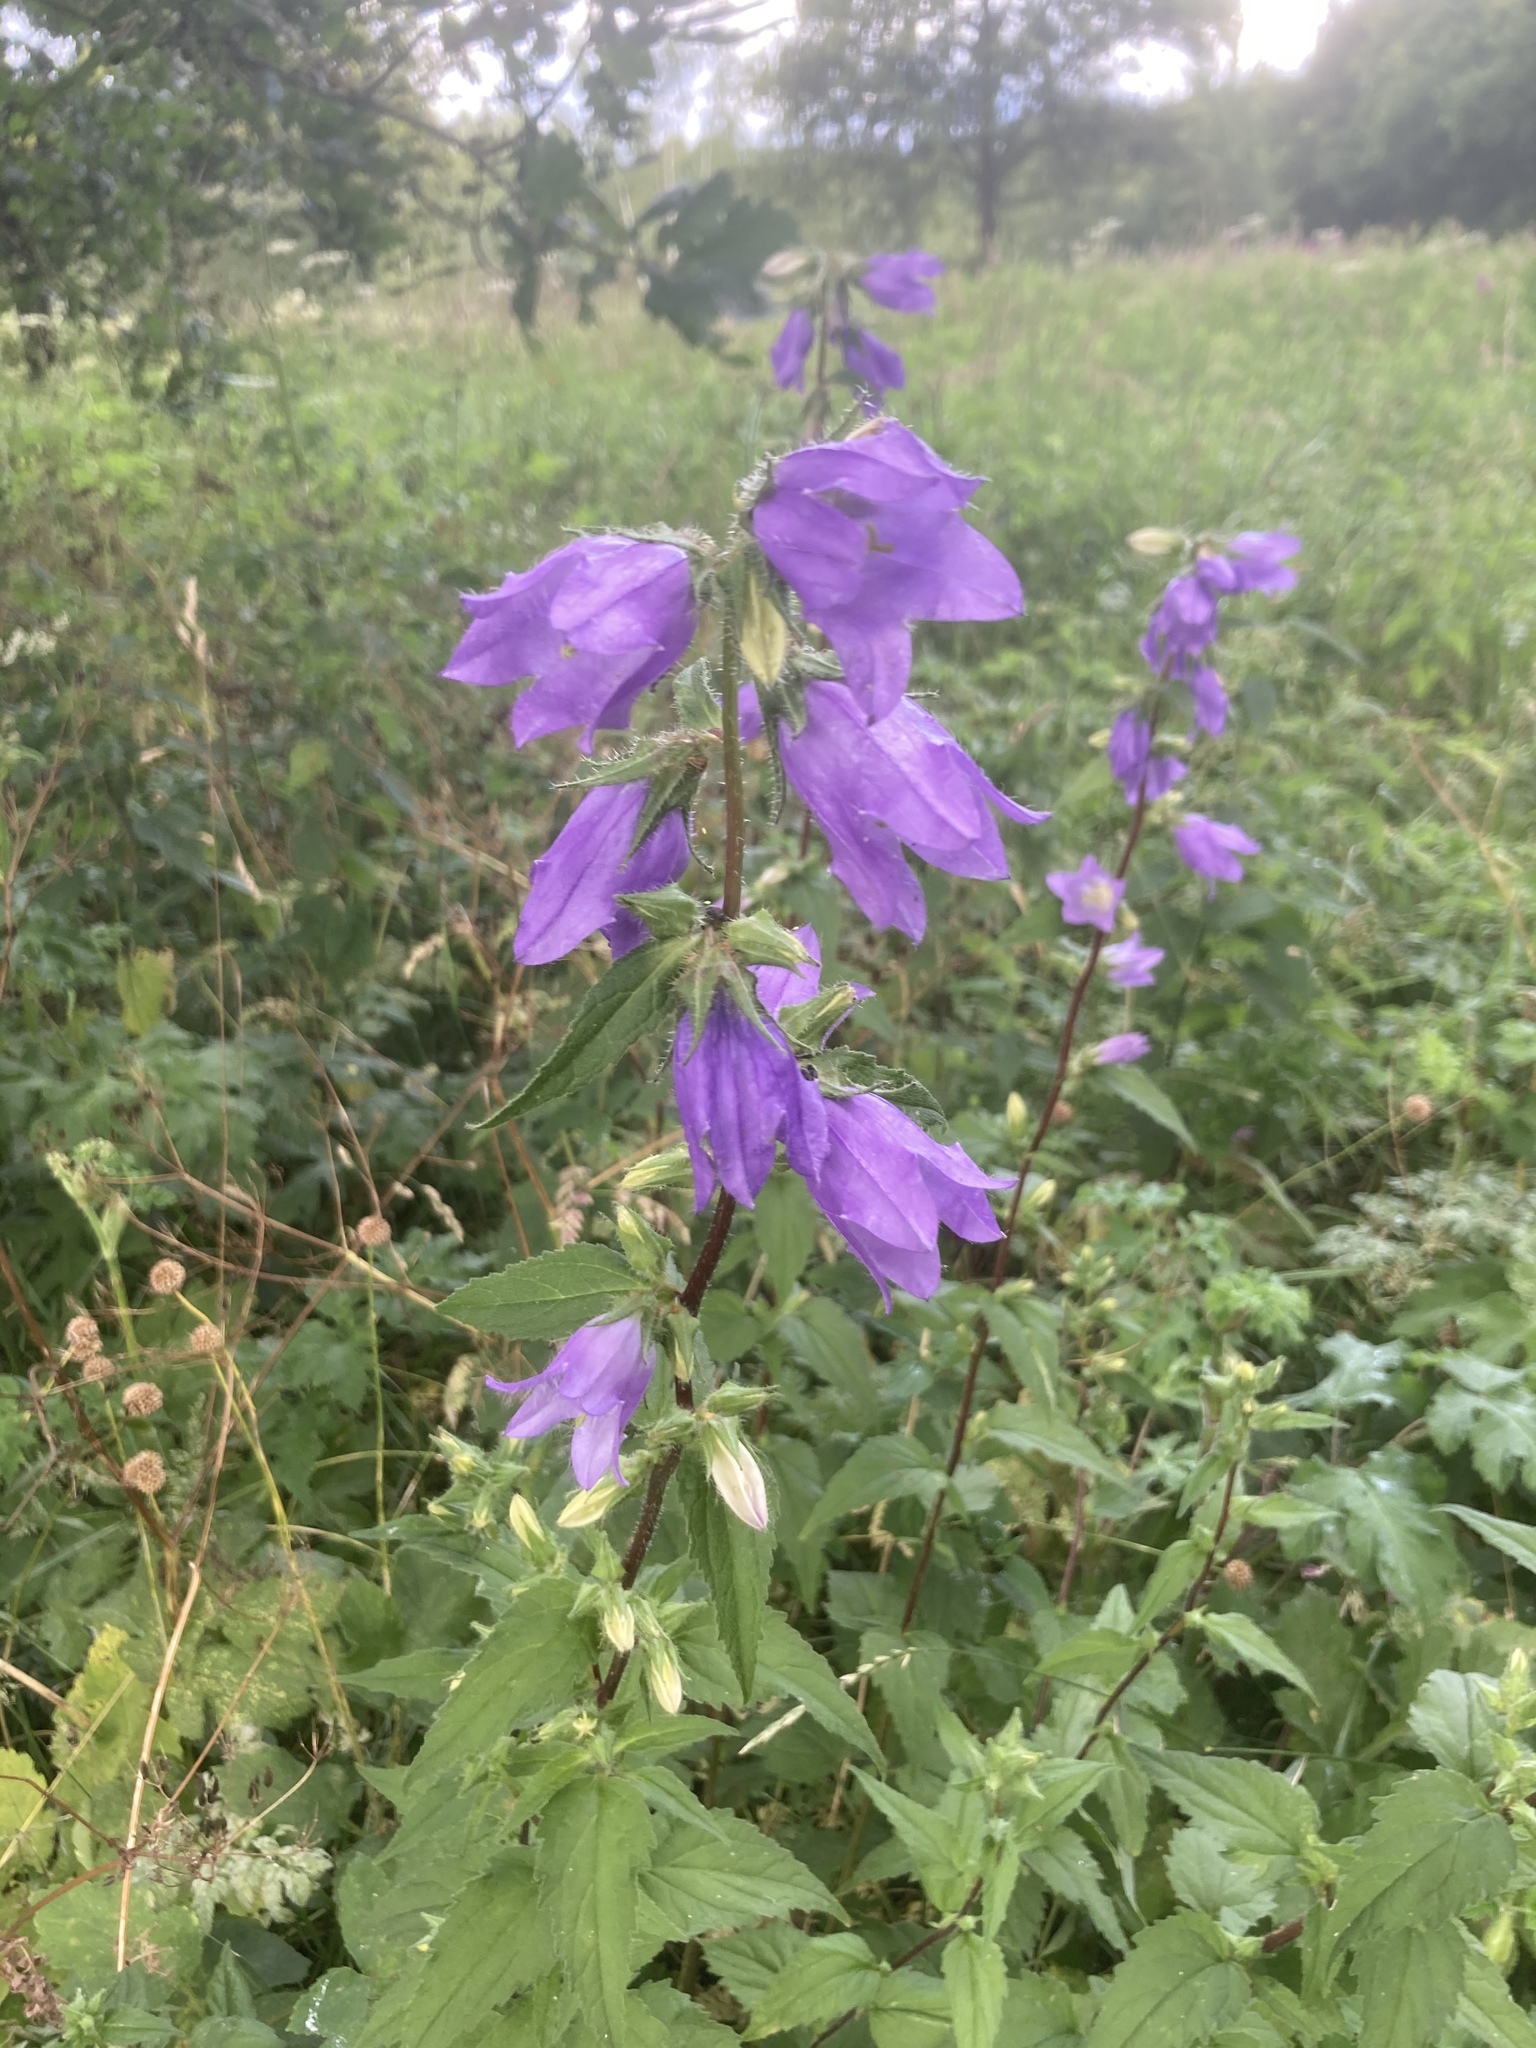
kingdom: Plantae
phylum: Tracheophyta
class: Magnoliopsida
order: Asterales
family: Campanulaceae
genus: Campanula
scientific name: Campanula trachelium
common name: Nettle-leaved bellflower
